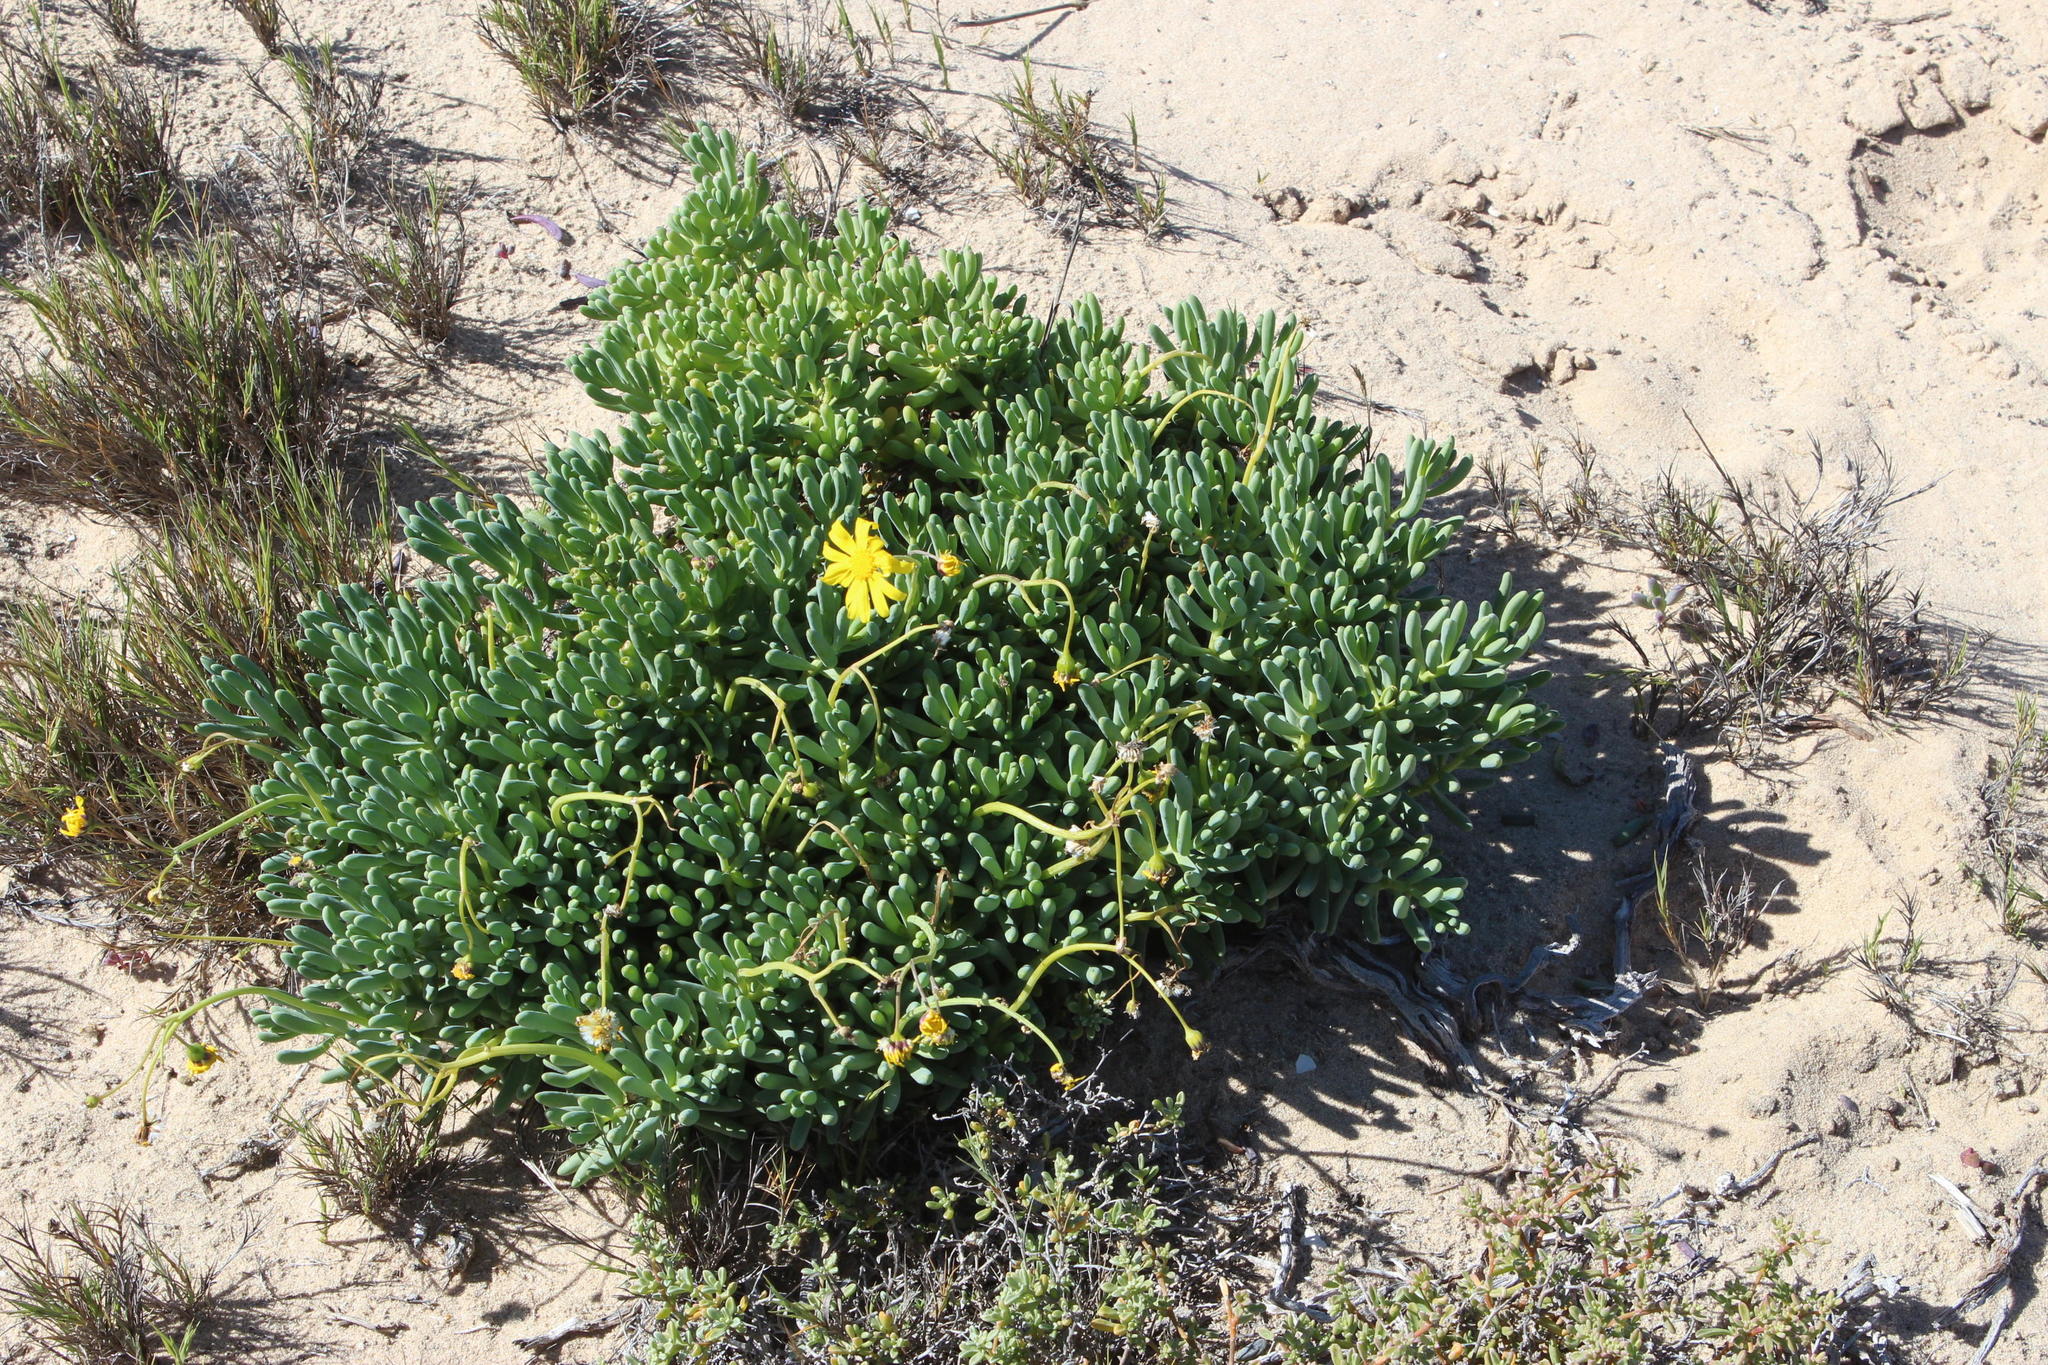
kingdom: Plantae
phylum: Tracheophyta
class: Magnoliopsida
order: Asterales
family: Asteraceae
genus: Crassothonna
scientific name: Crassothonna cylindrica
